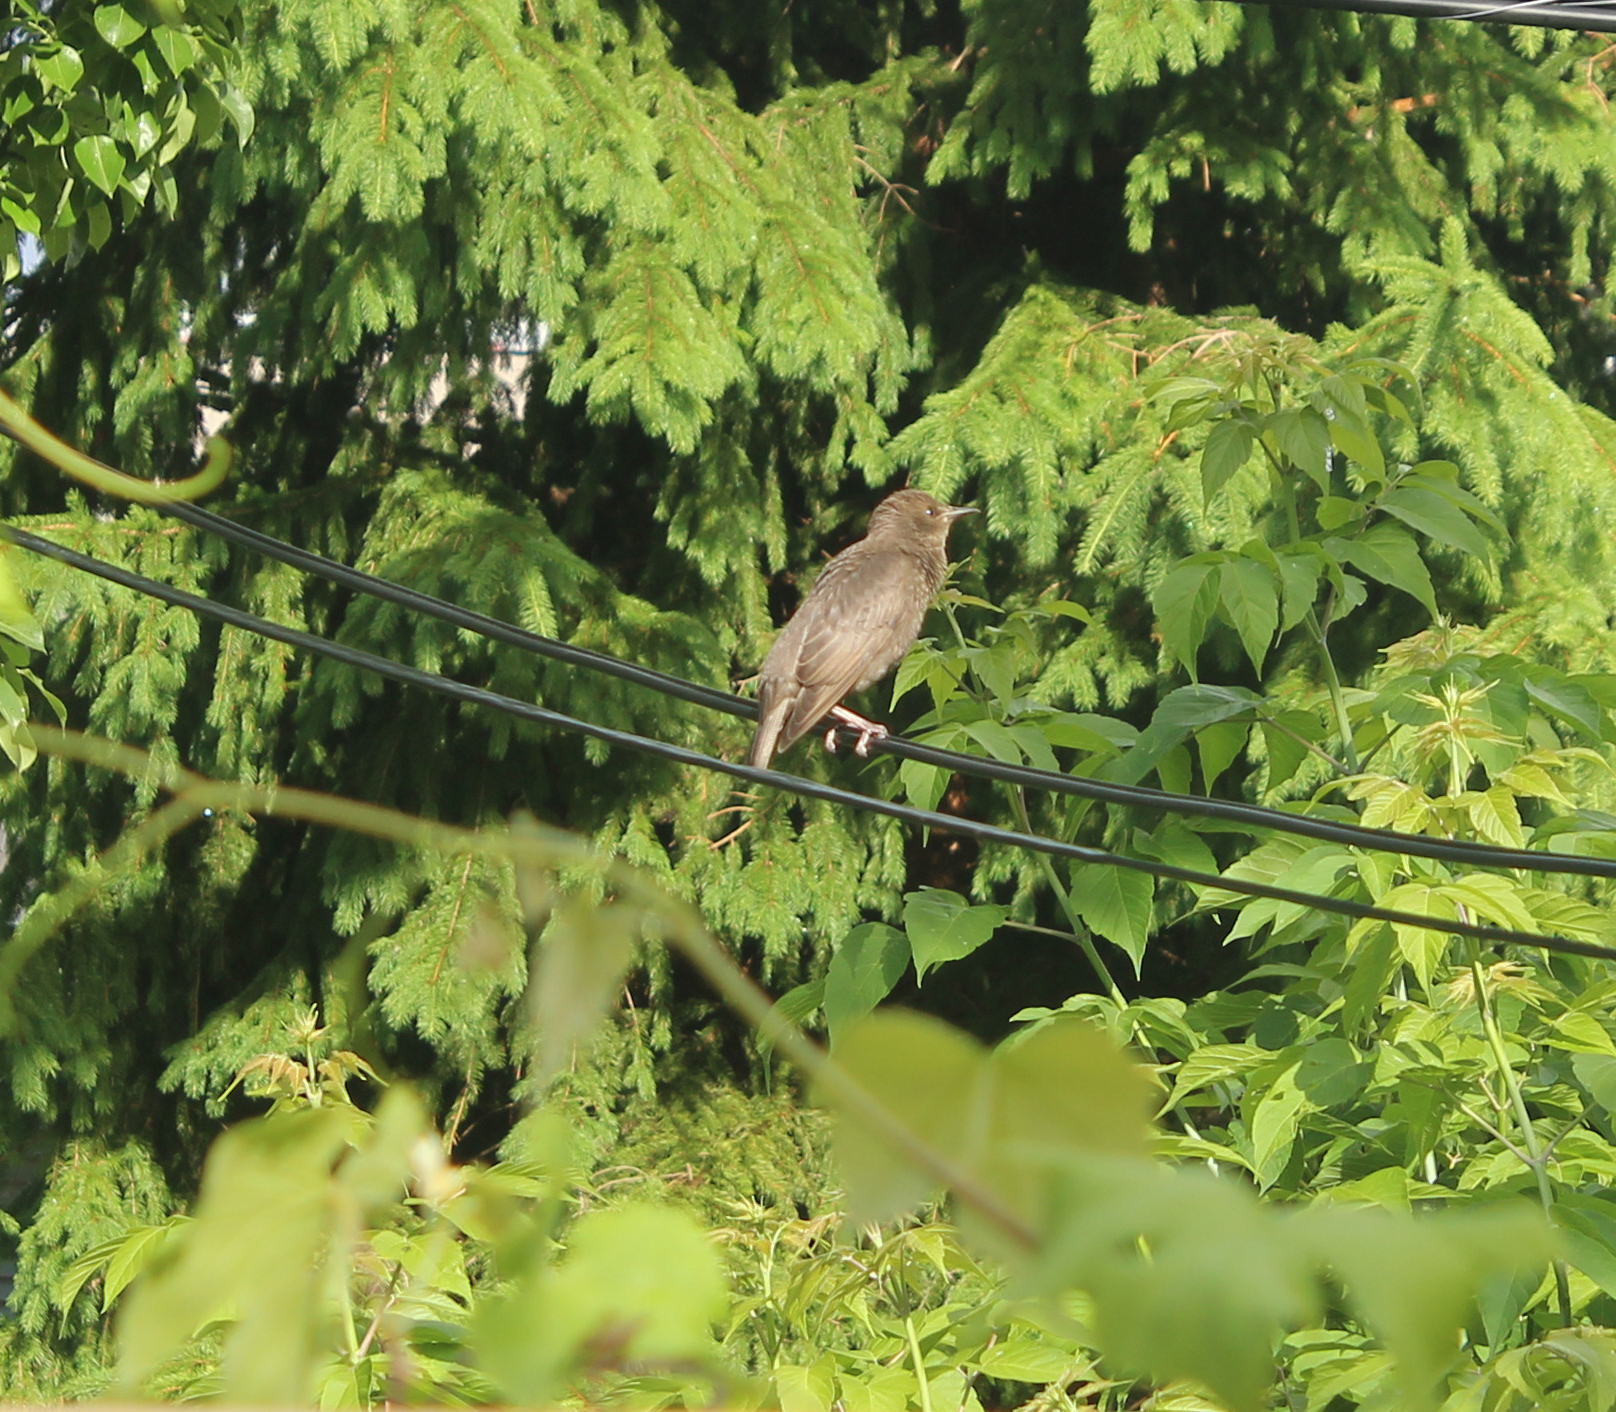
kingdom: Animalia
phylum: Chordata
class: Aves
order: Passeriformes
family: Sturnidae
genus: Sturnus
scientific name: Sturnus vulgaris
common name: Common starling
